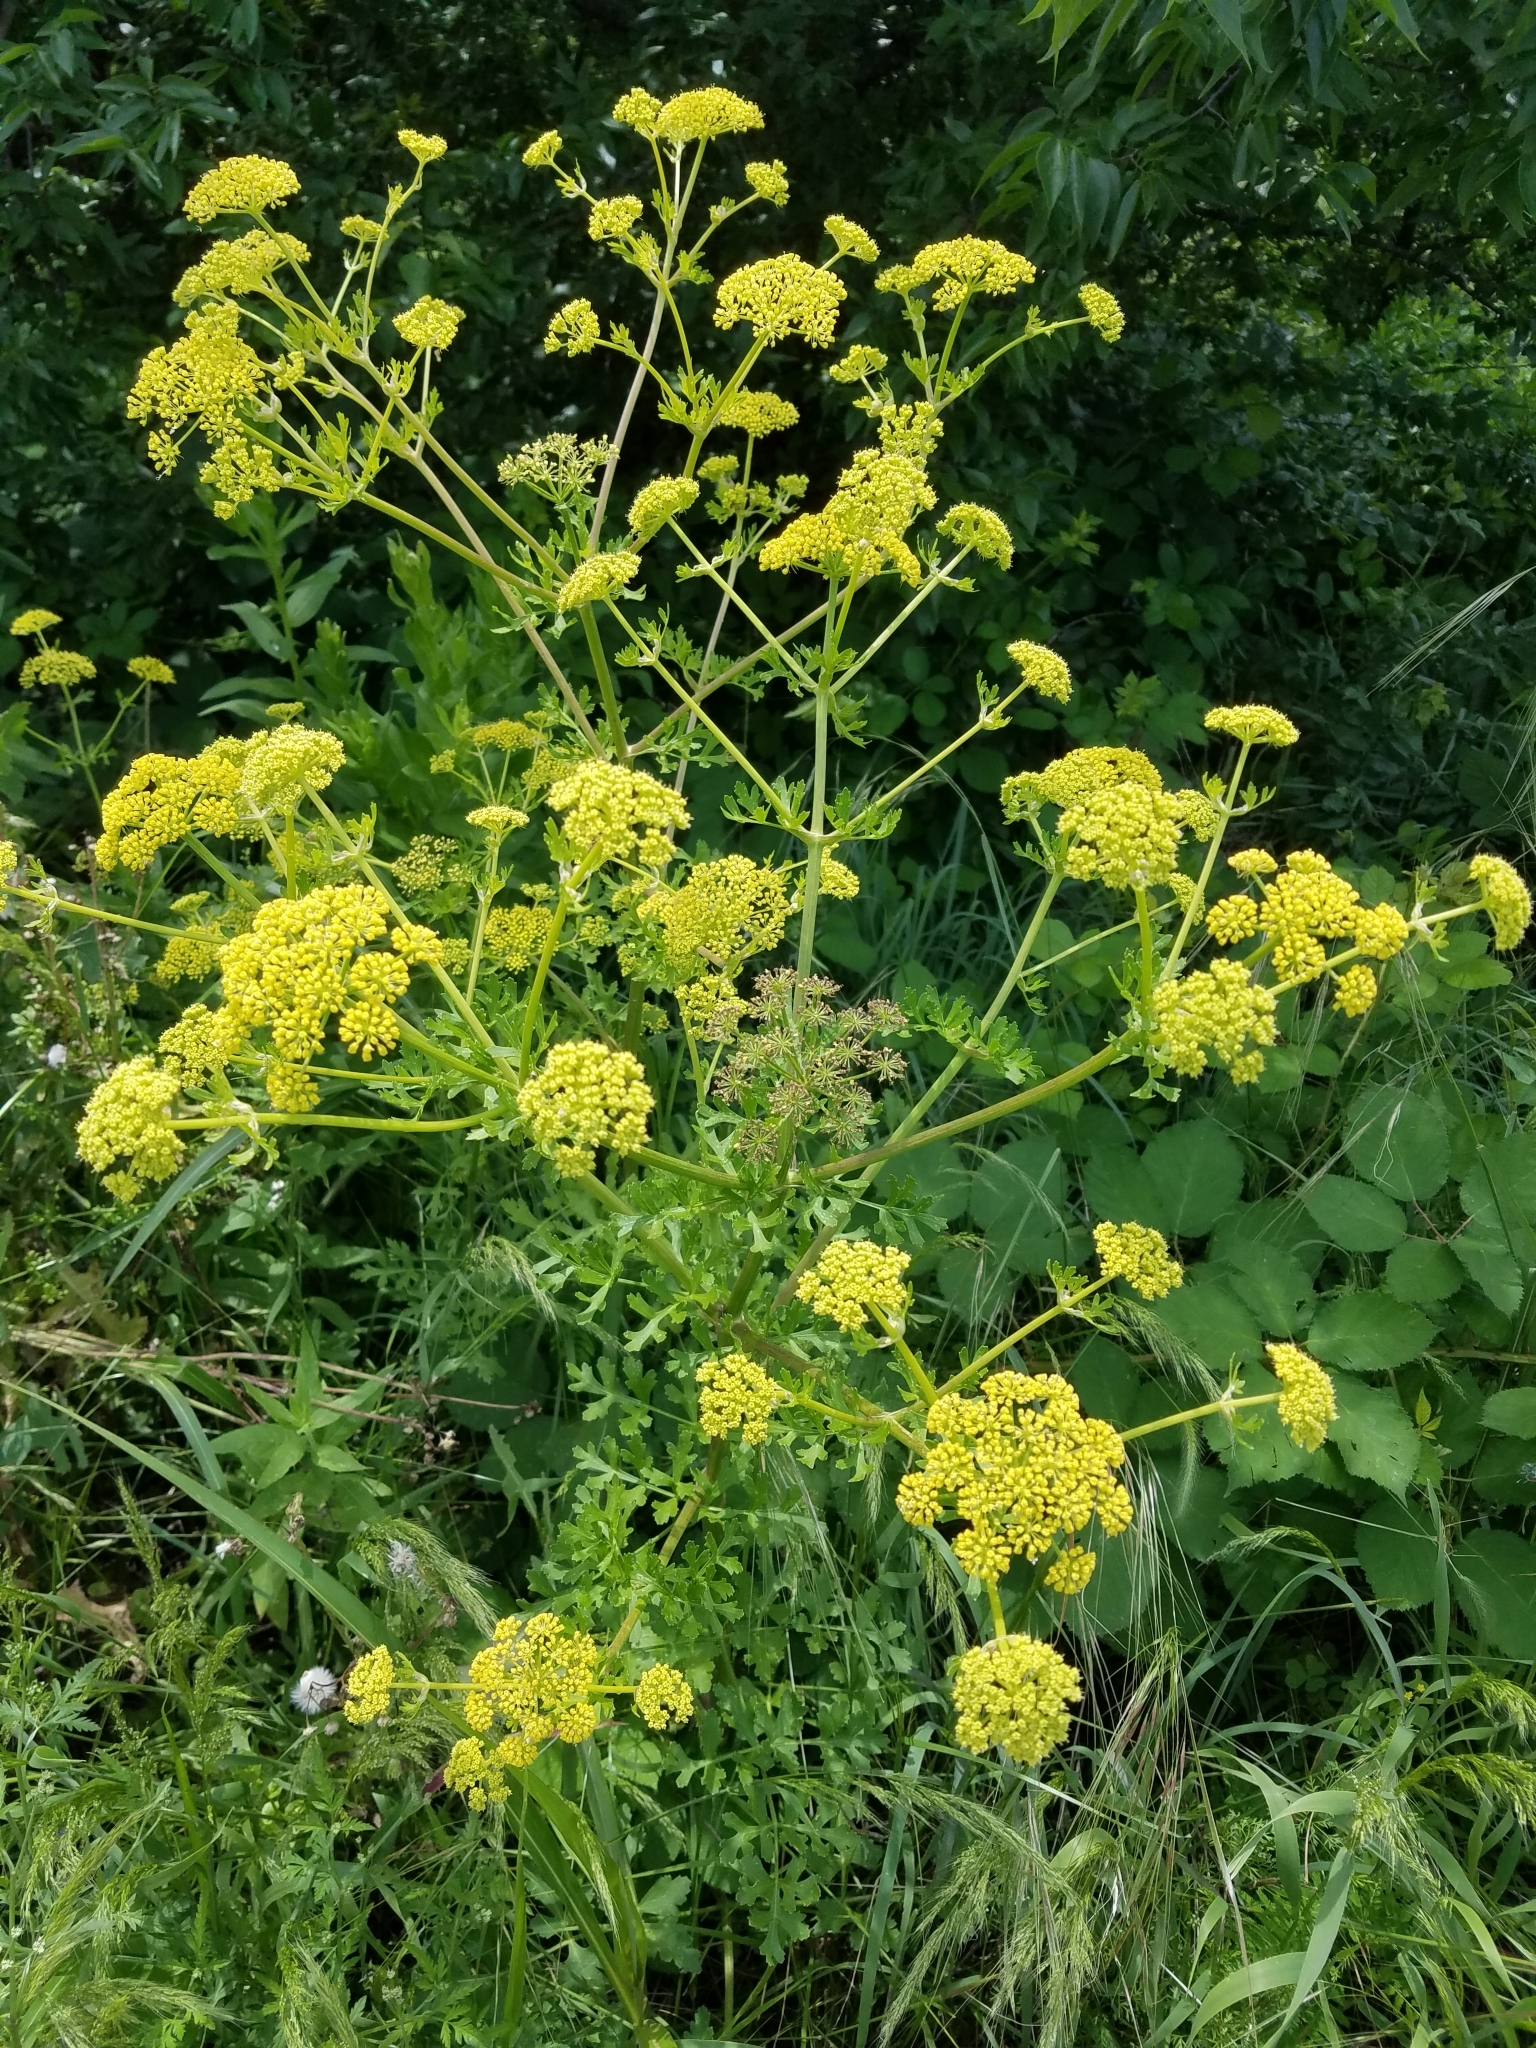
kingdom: Plantae
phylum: Tracheophyta
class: Magnoliopsida
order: Apiales
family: Apiaceae
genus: Polytaenia
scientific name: Polytaenia texana
